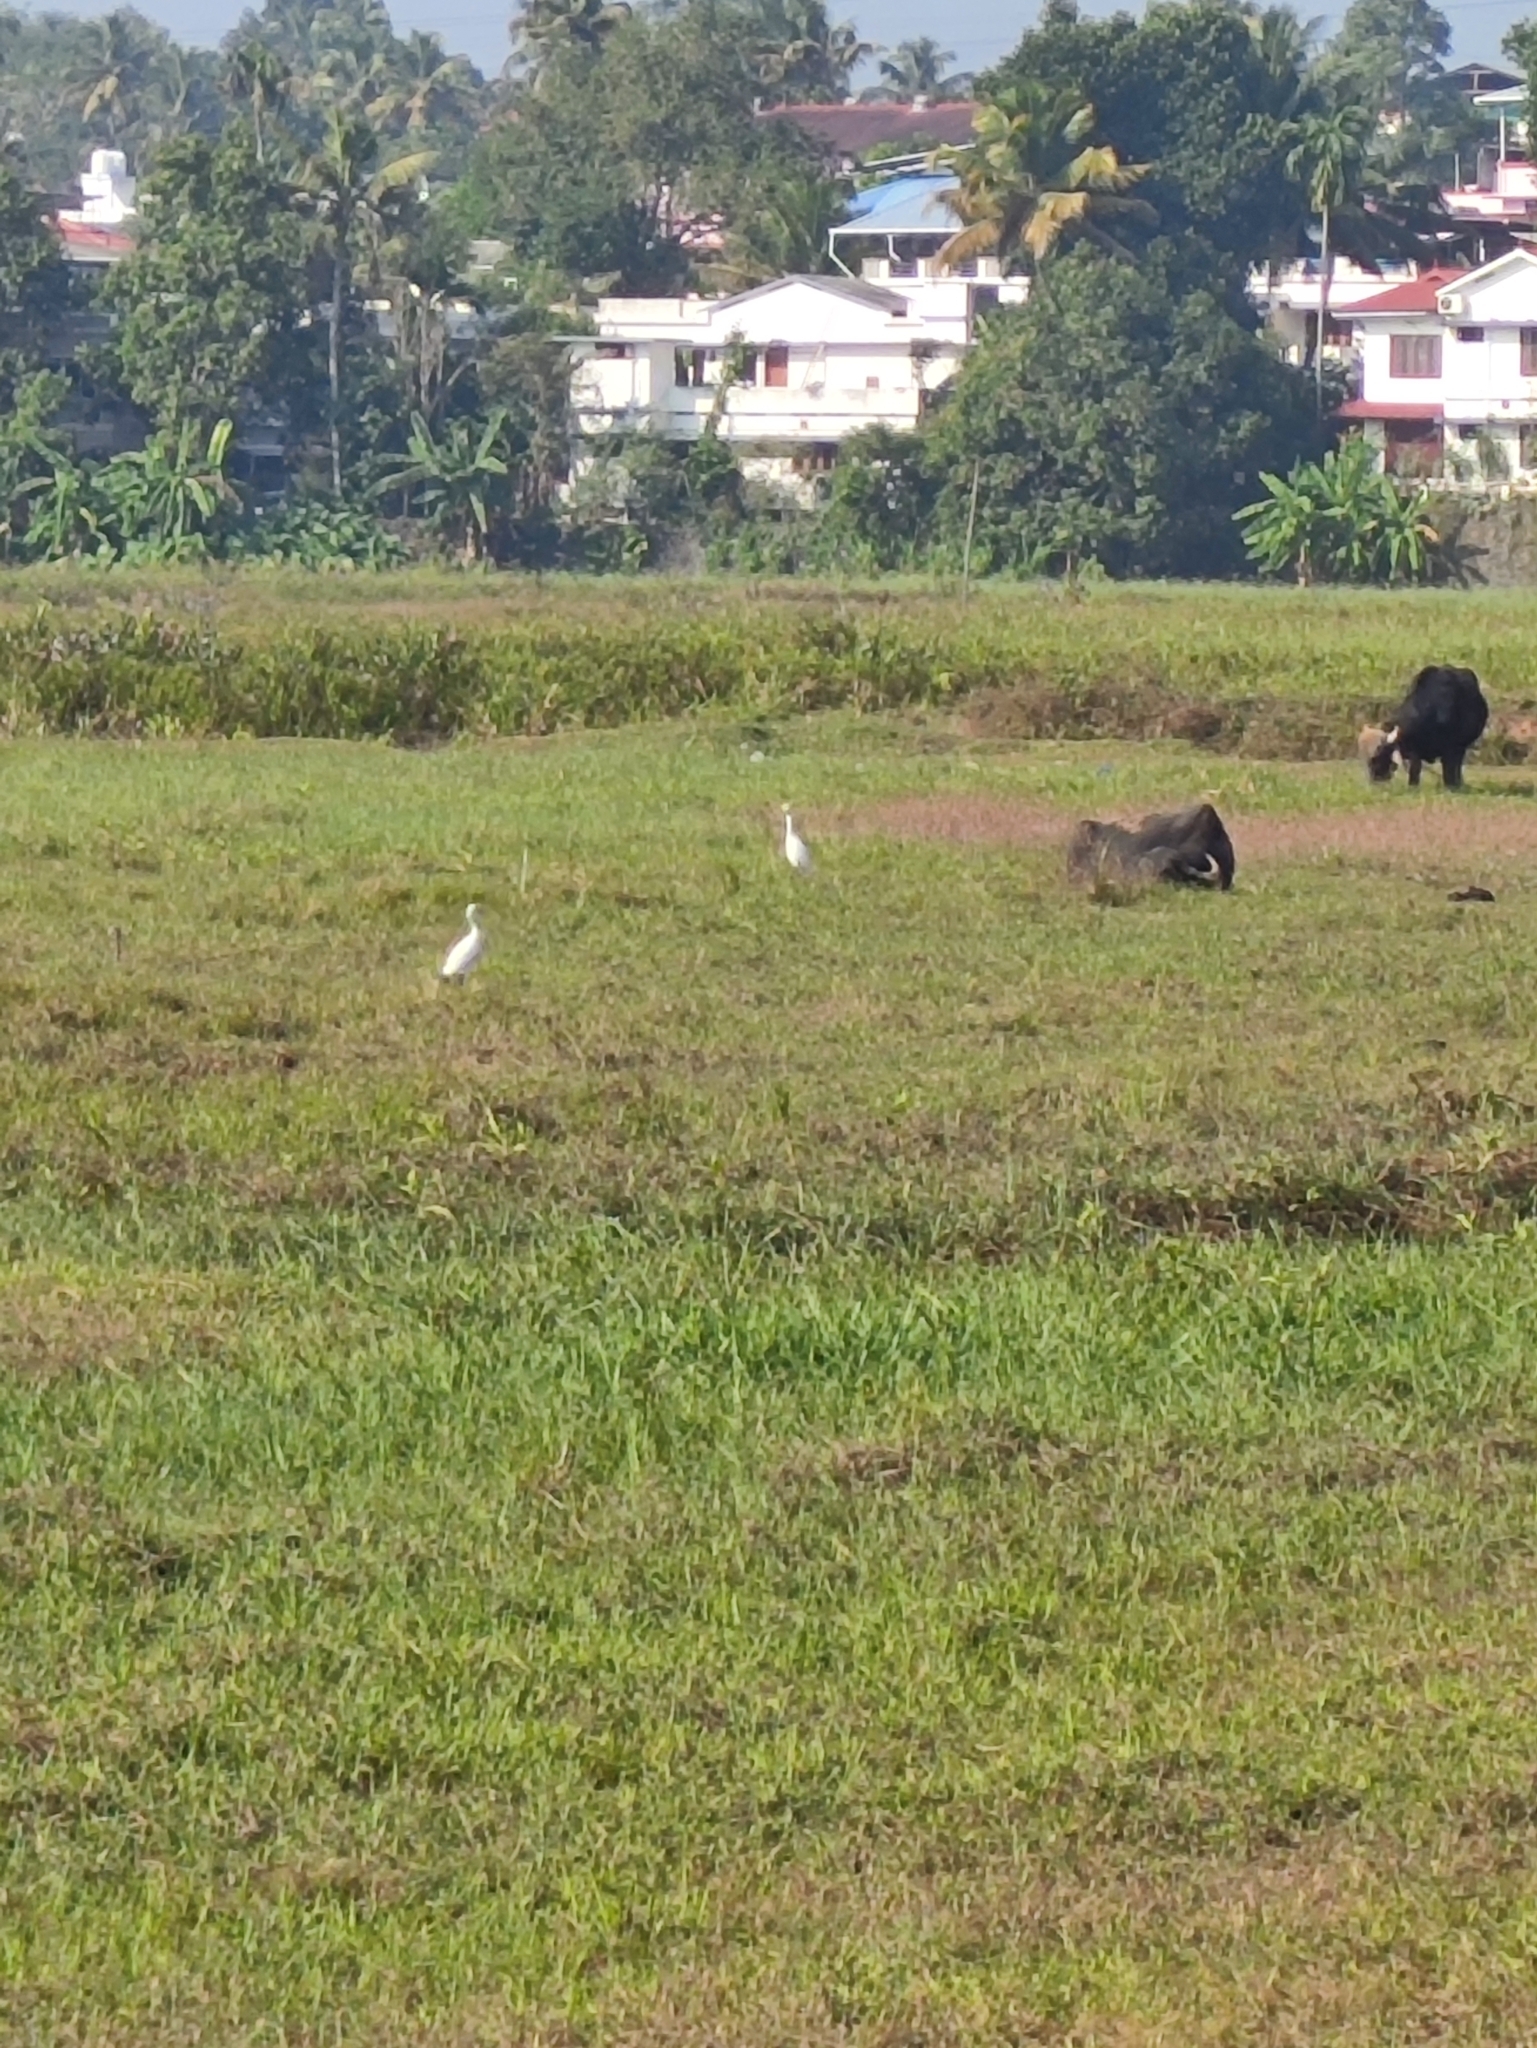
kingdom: Animalia
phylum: Chordata
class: Aves
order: Pelecaniformes
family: Ardeidae
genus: Bubulcus
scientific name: Bubulcus coromandus
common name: Eastern cattle egret
